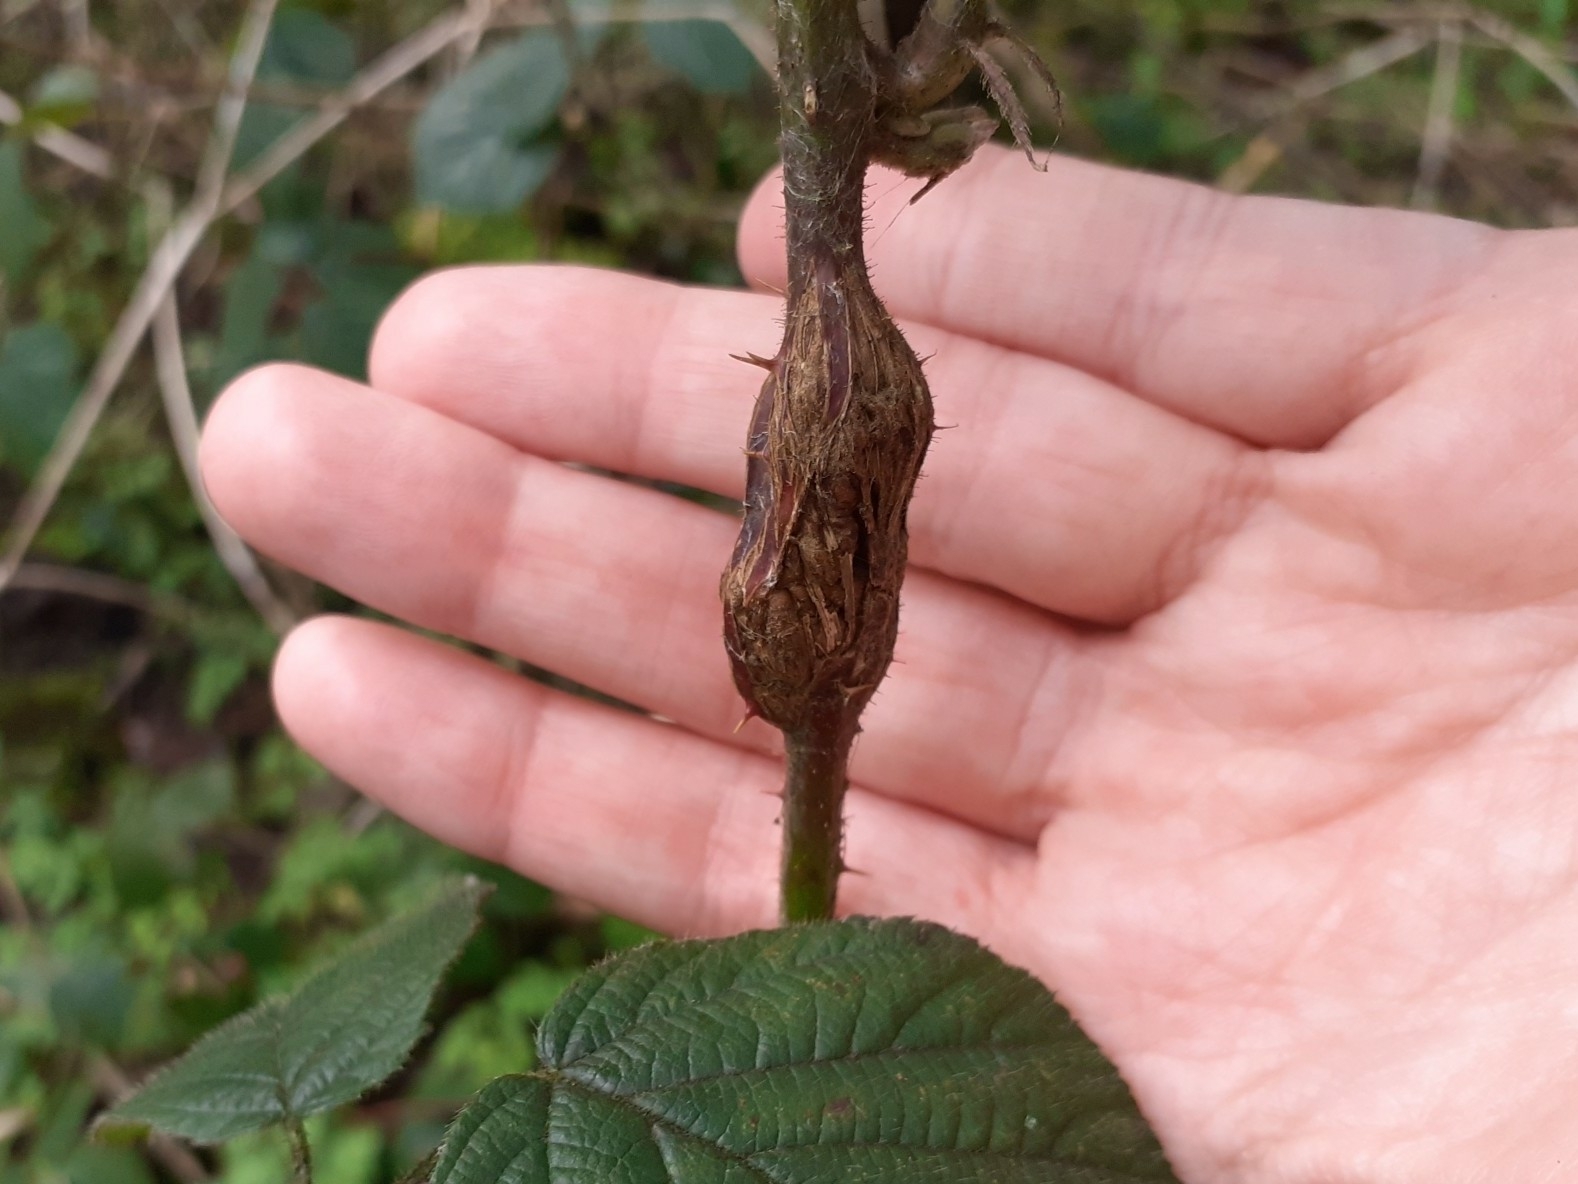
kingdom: Animalia
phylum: Arthropoda
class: Insecta
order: Diptera
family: Cecidomyiidae
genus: Lasioptera
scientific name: Lasioptera rubi
